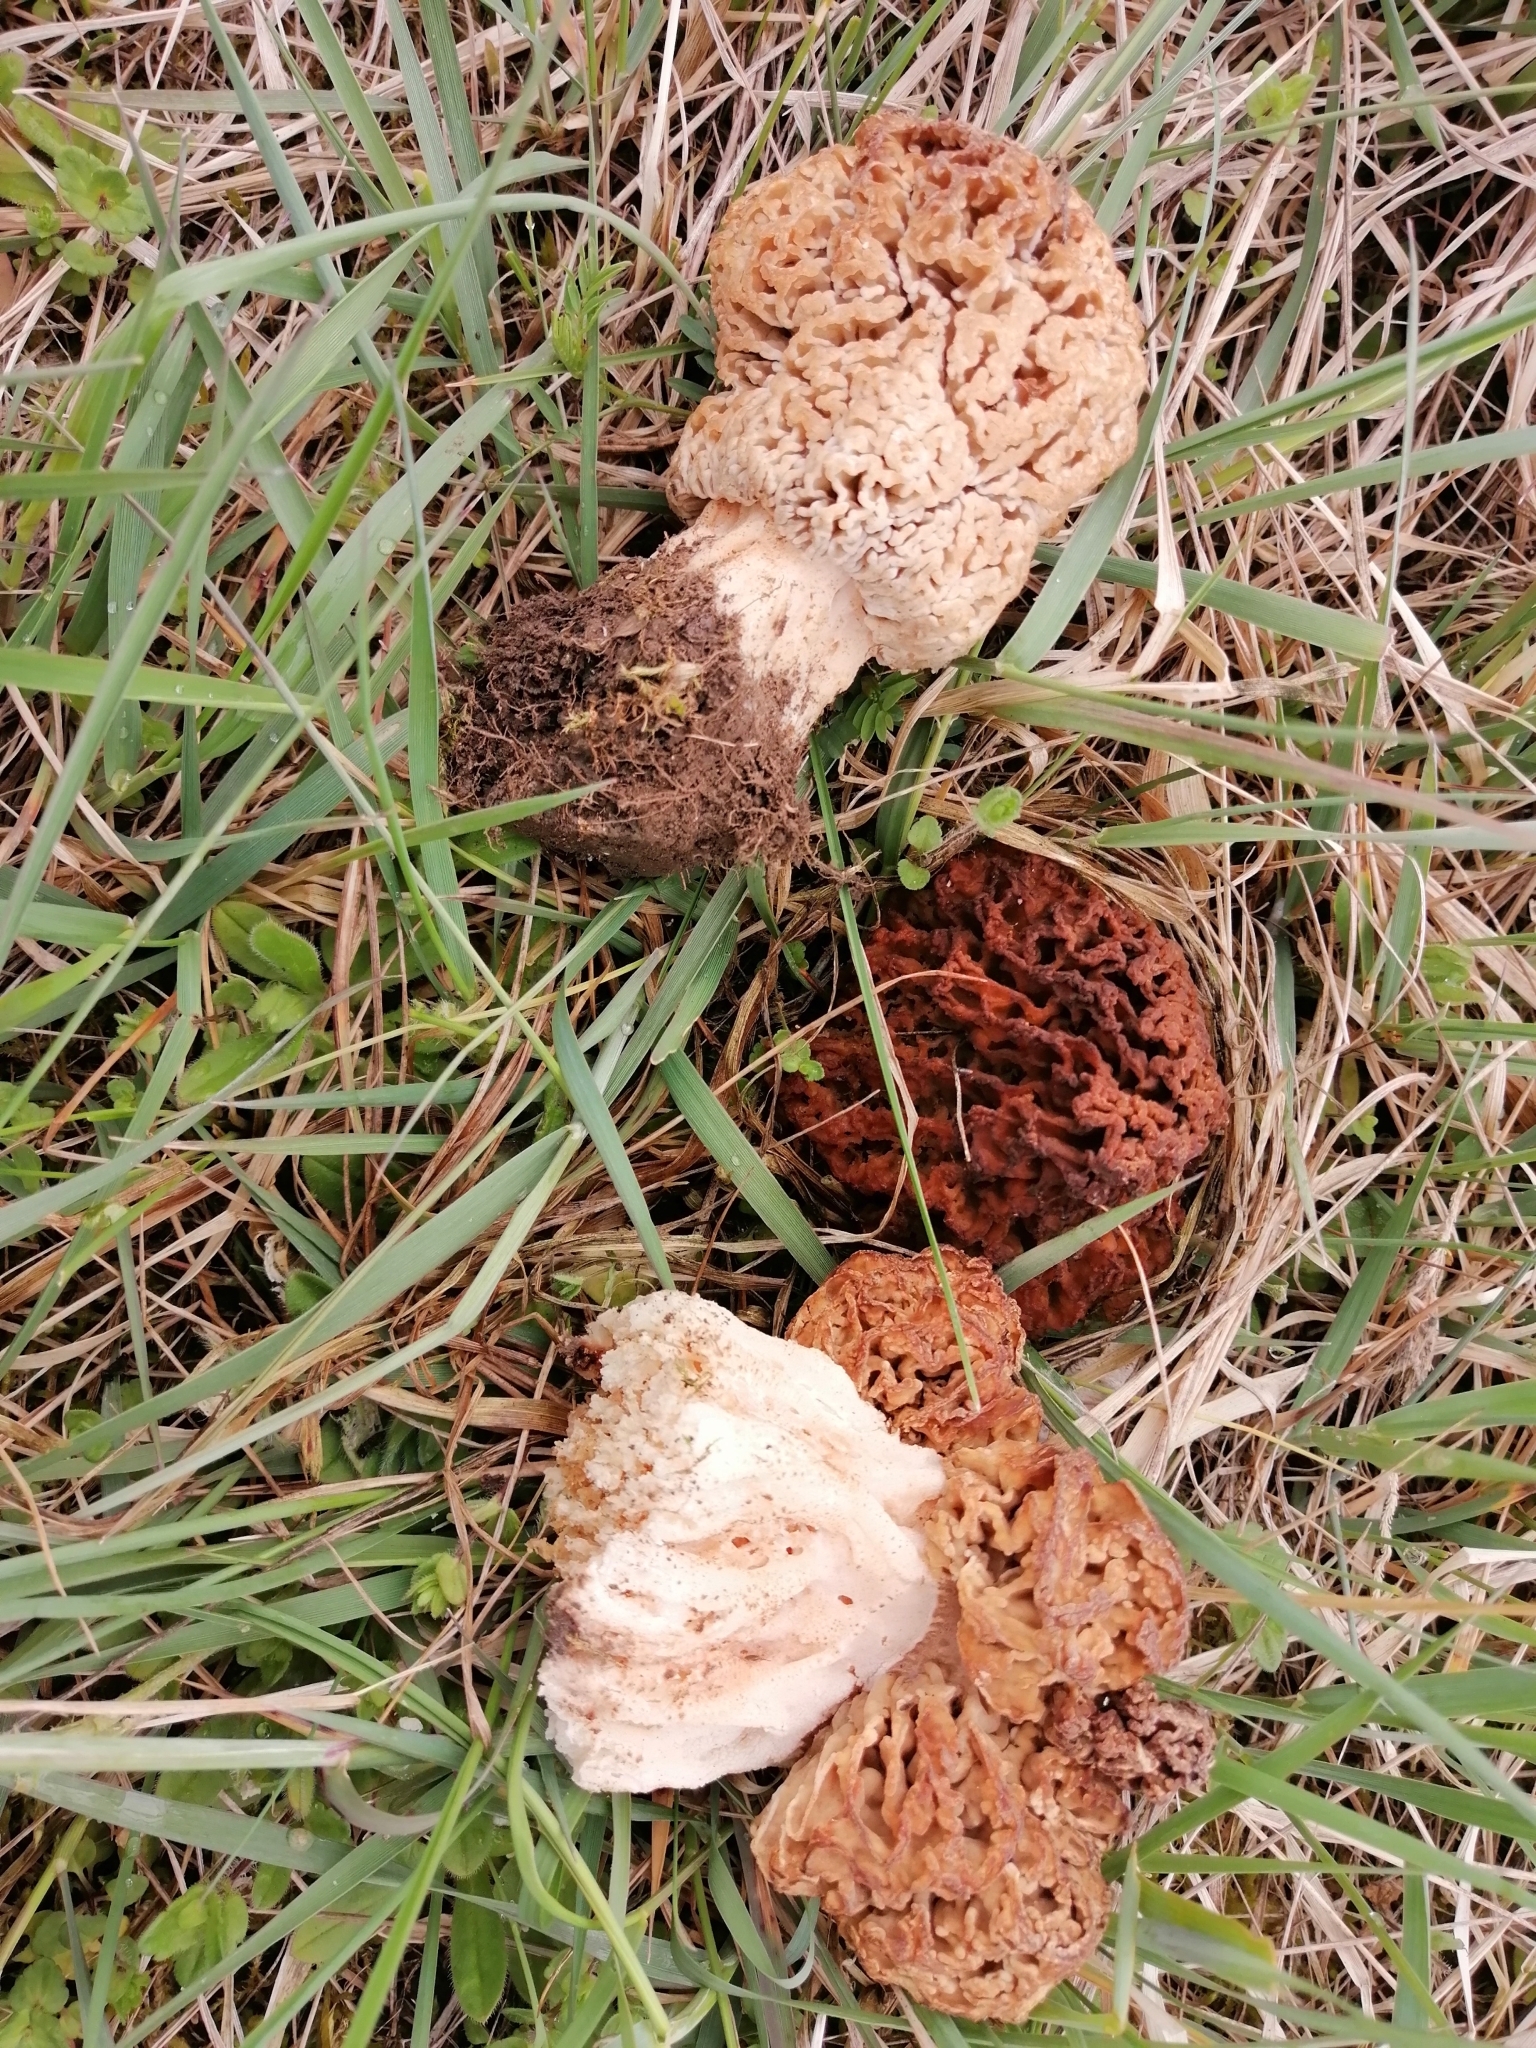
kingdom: Fungi
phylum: Ascomycota
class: Pezizomycetes
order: Pezizales
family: Morchellaceae
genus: Morchella
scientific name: Morchella steppicola
